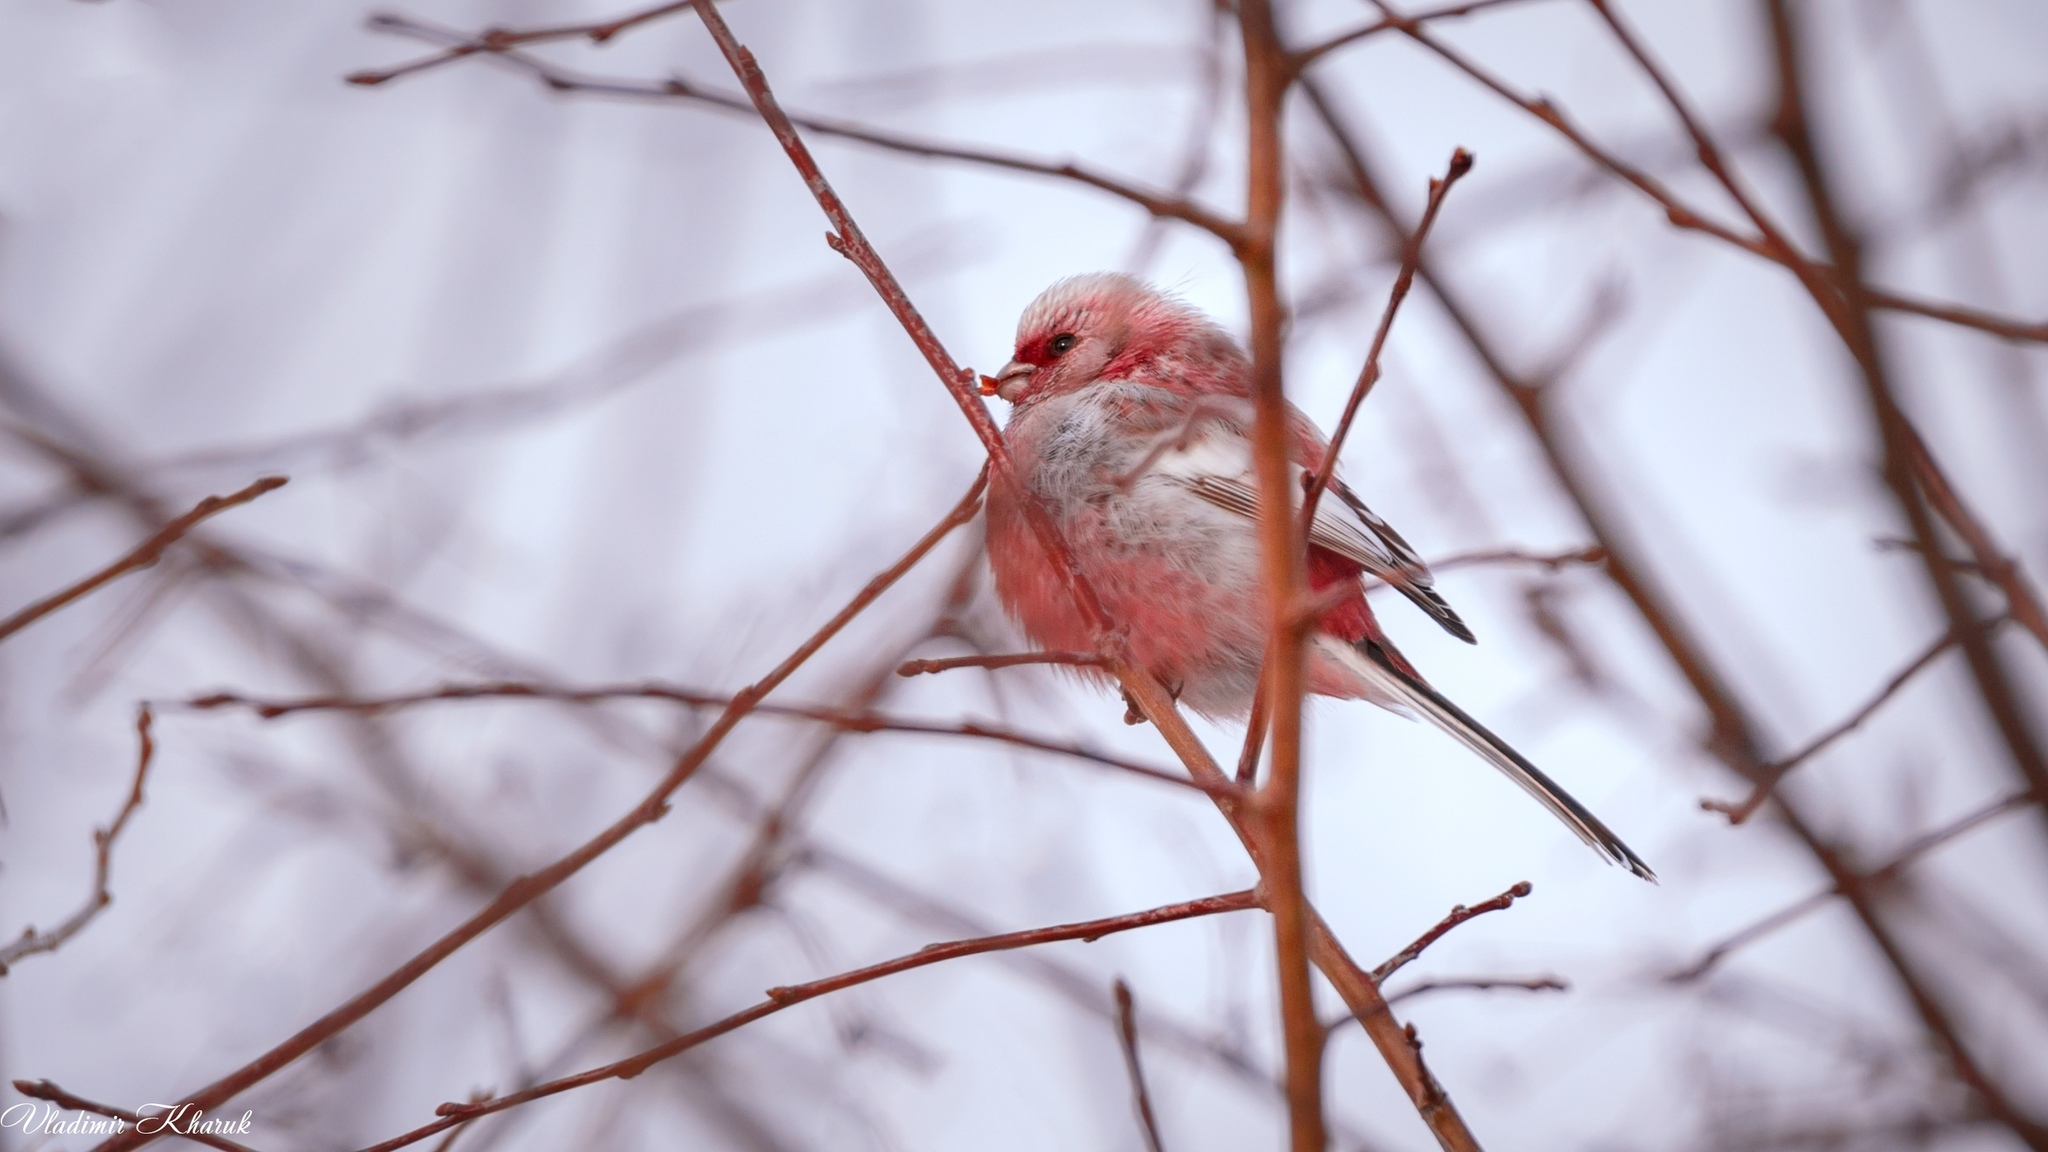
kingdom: Animalia
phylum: Chordata
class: Aves
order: Passeriformes
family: Fringillidae
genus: Carpodacus
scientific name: Carpodacus sibiricus
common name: Long-tailed rosefinch
